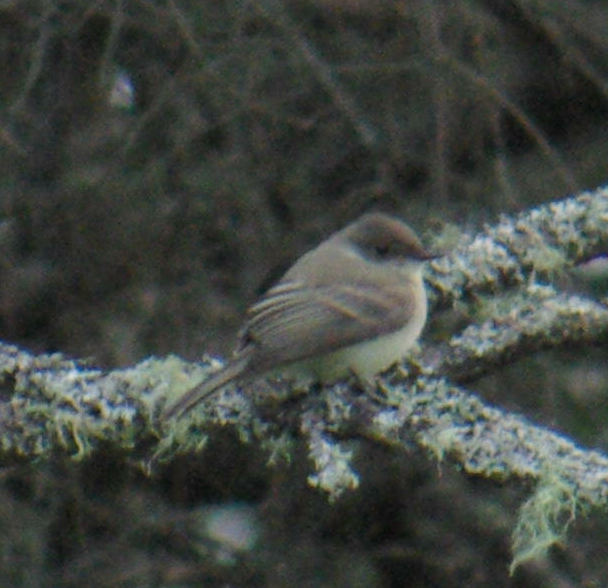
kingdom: Animalia
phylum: Chordata
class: Aves
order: Passeriformes
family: Tyrannidae
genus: Sayornis
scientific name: Sayornis phoebe
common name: Eastern phoebe
